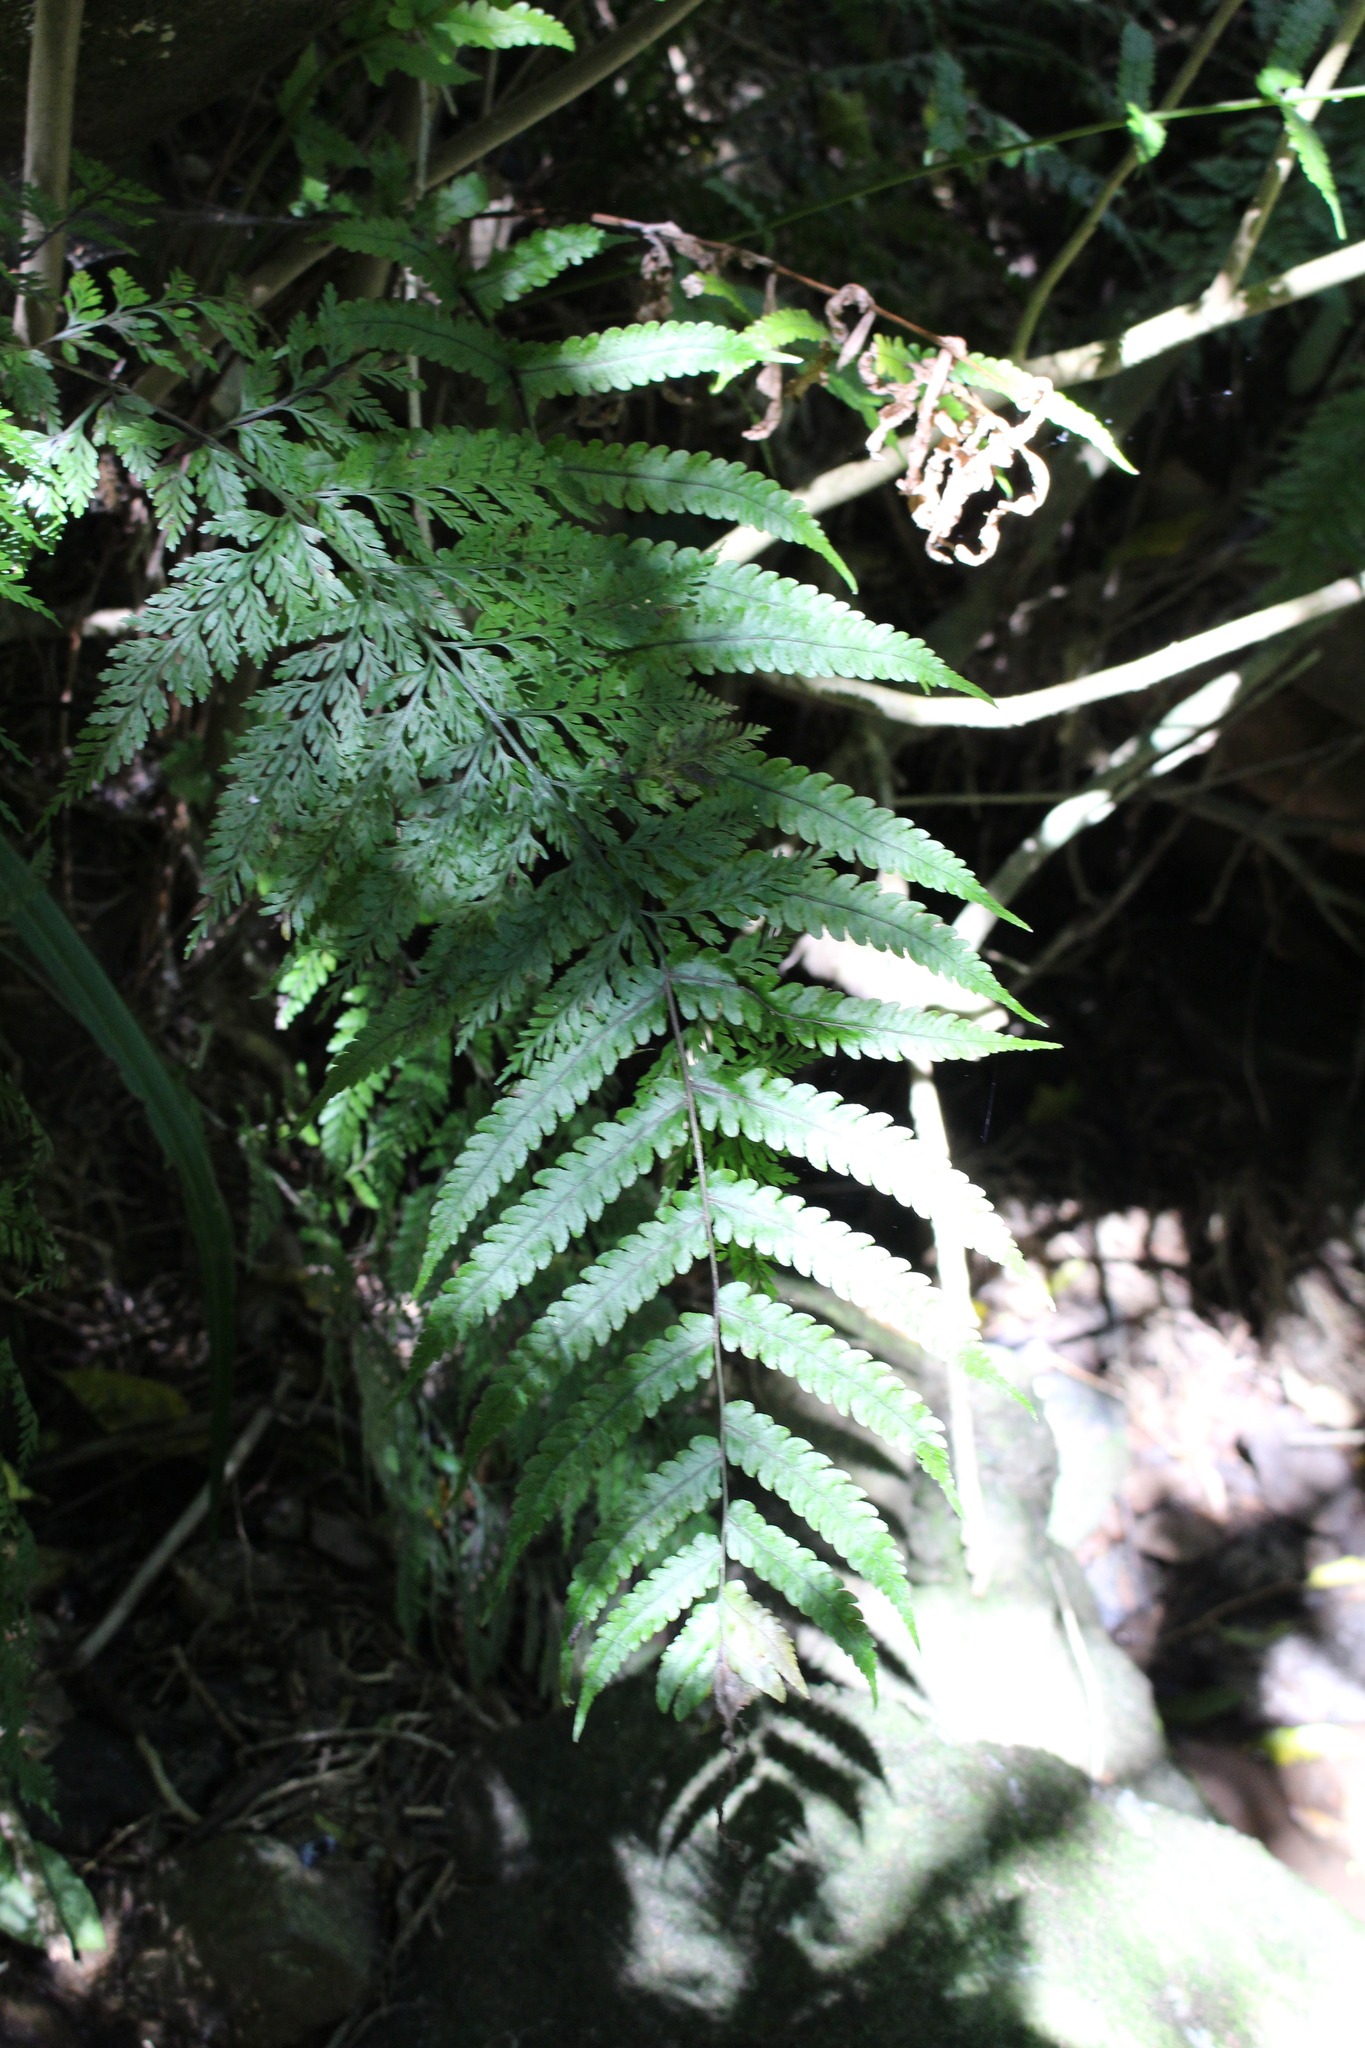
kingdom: Plantae
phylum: Tracheophyta
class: Polypodiopsida
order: Polypodiales
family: Thelypteridaceae
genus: Pakau
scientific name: Pakau pennigera
